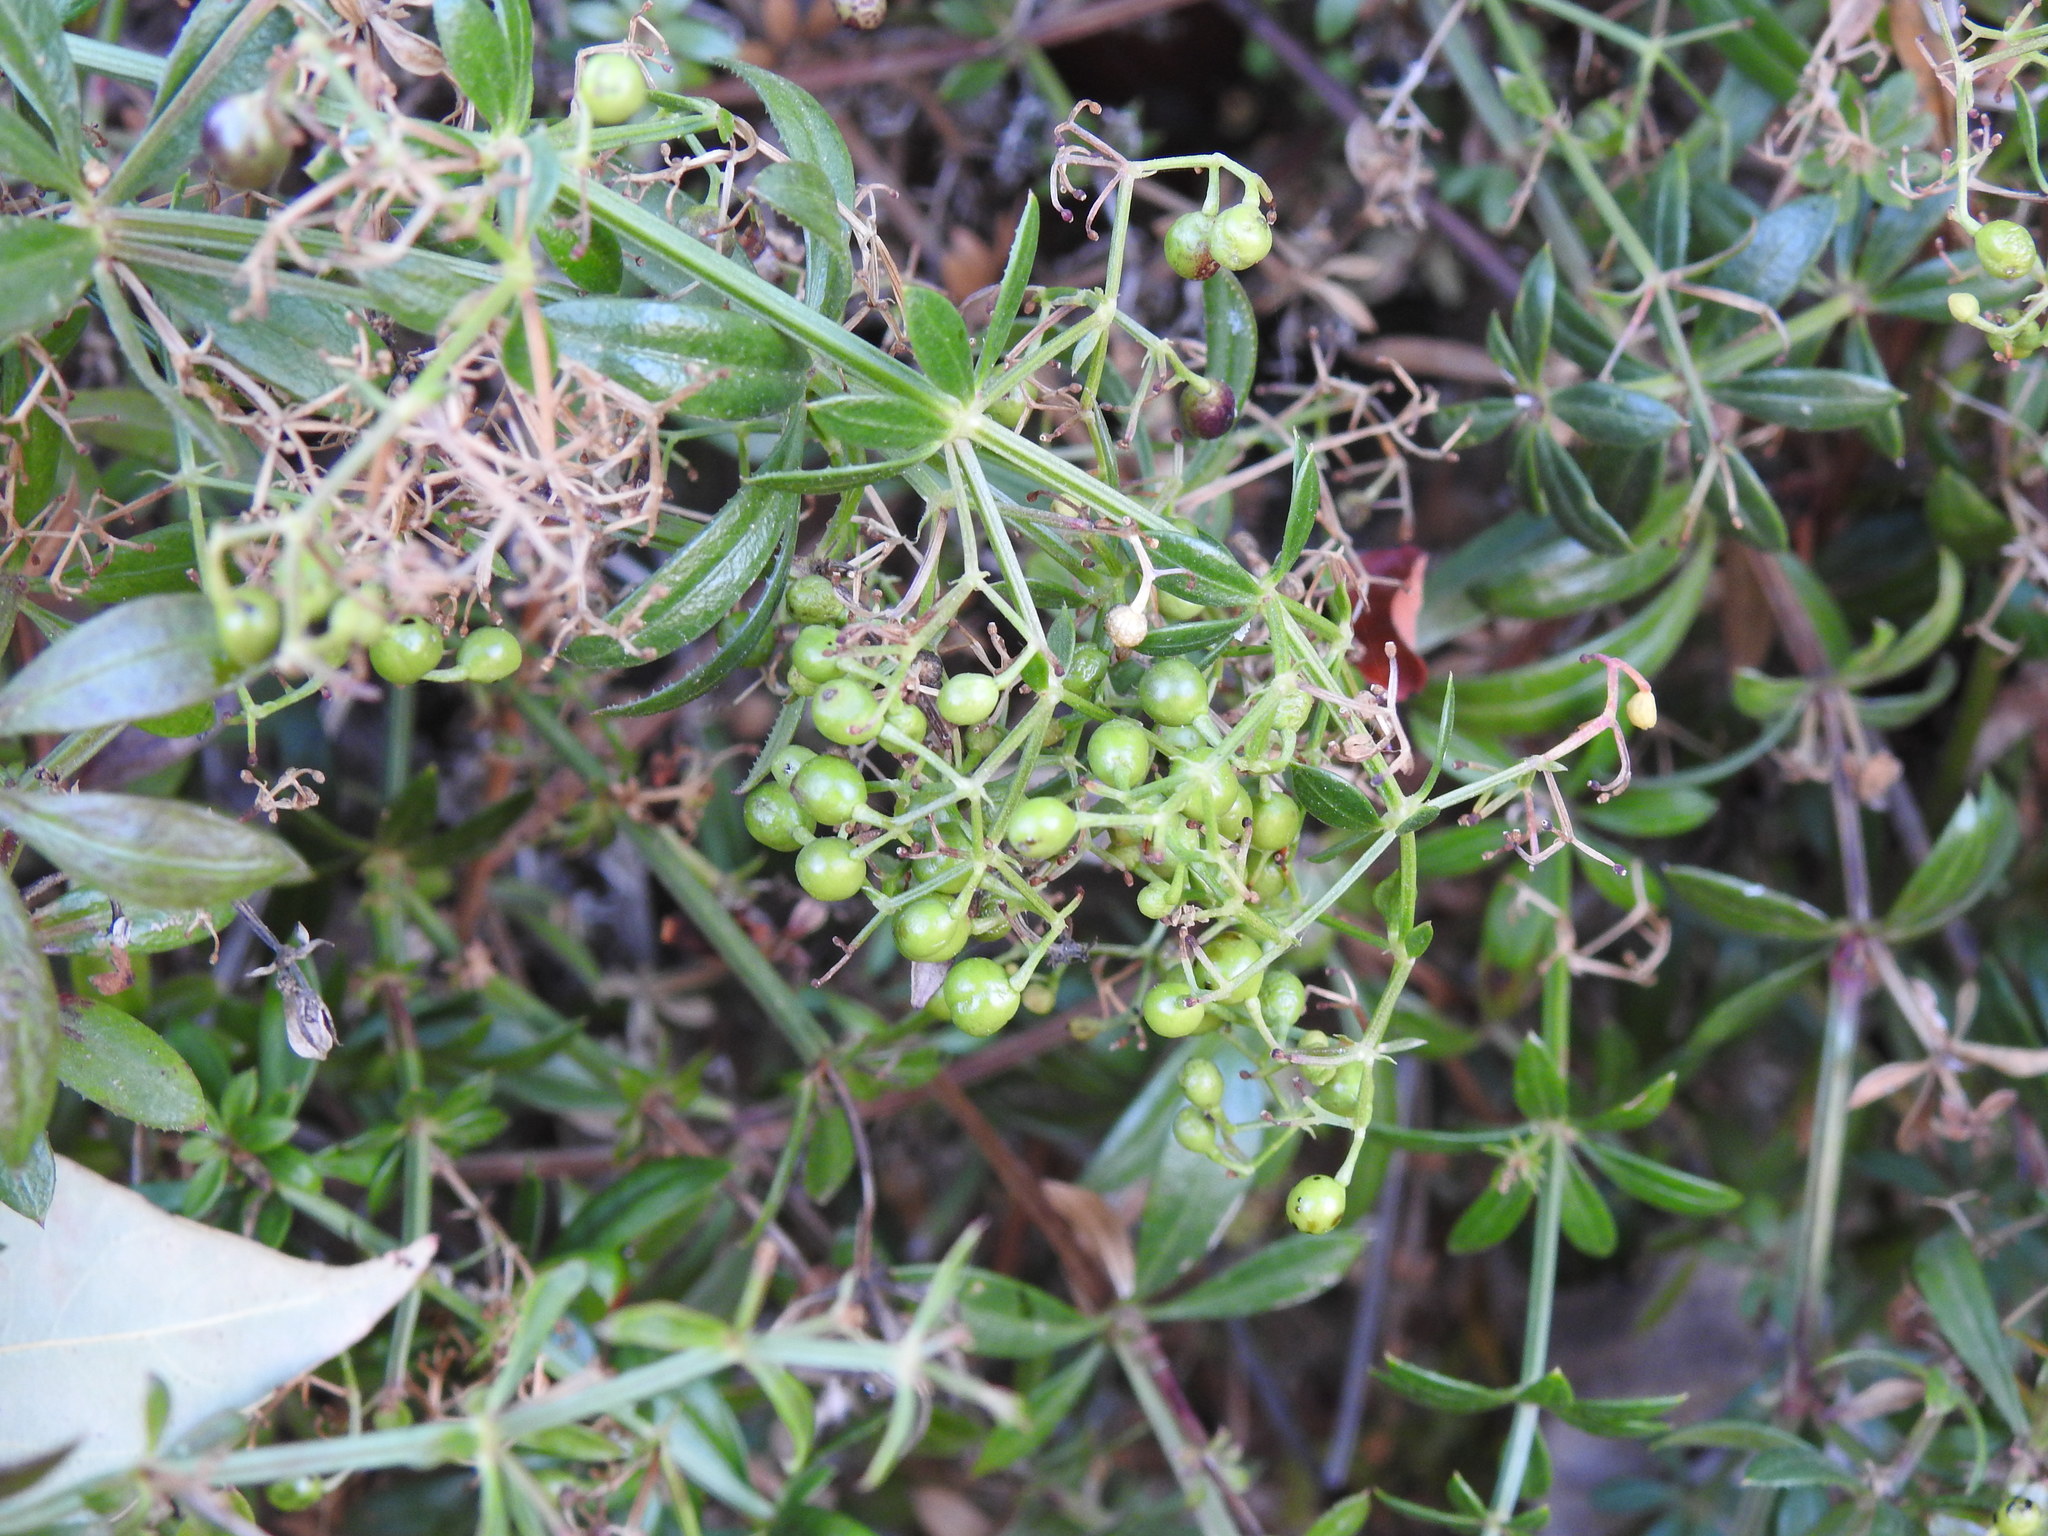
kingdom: Plantae
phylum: Tracheophyta
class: Magnoliopsida
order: Gentianales
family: Rubiaceae
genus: Rubia
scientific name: Rubia peregrina
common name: Wild madder
